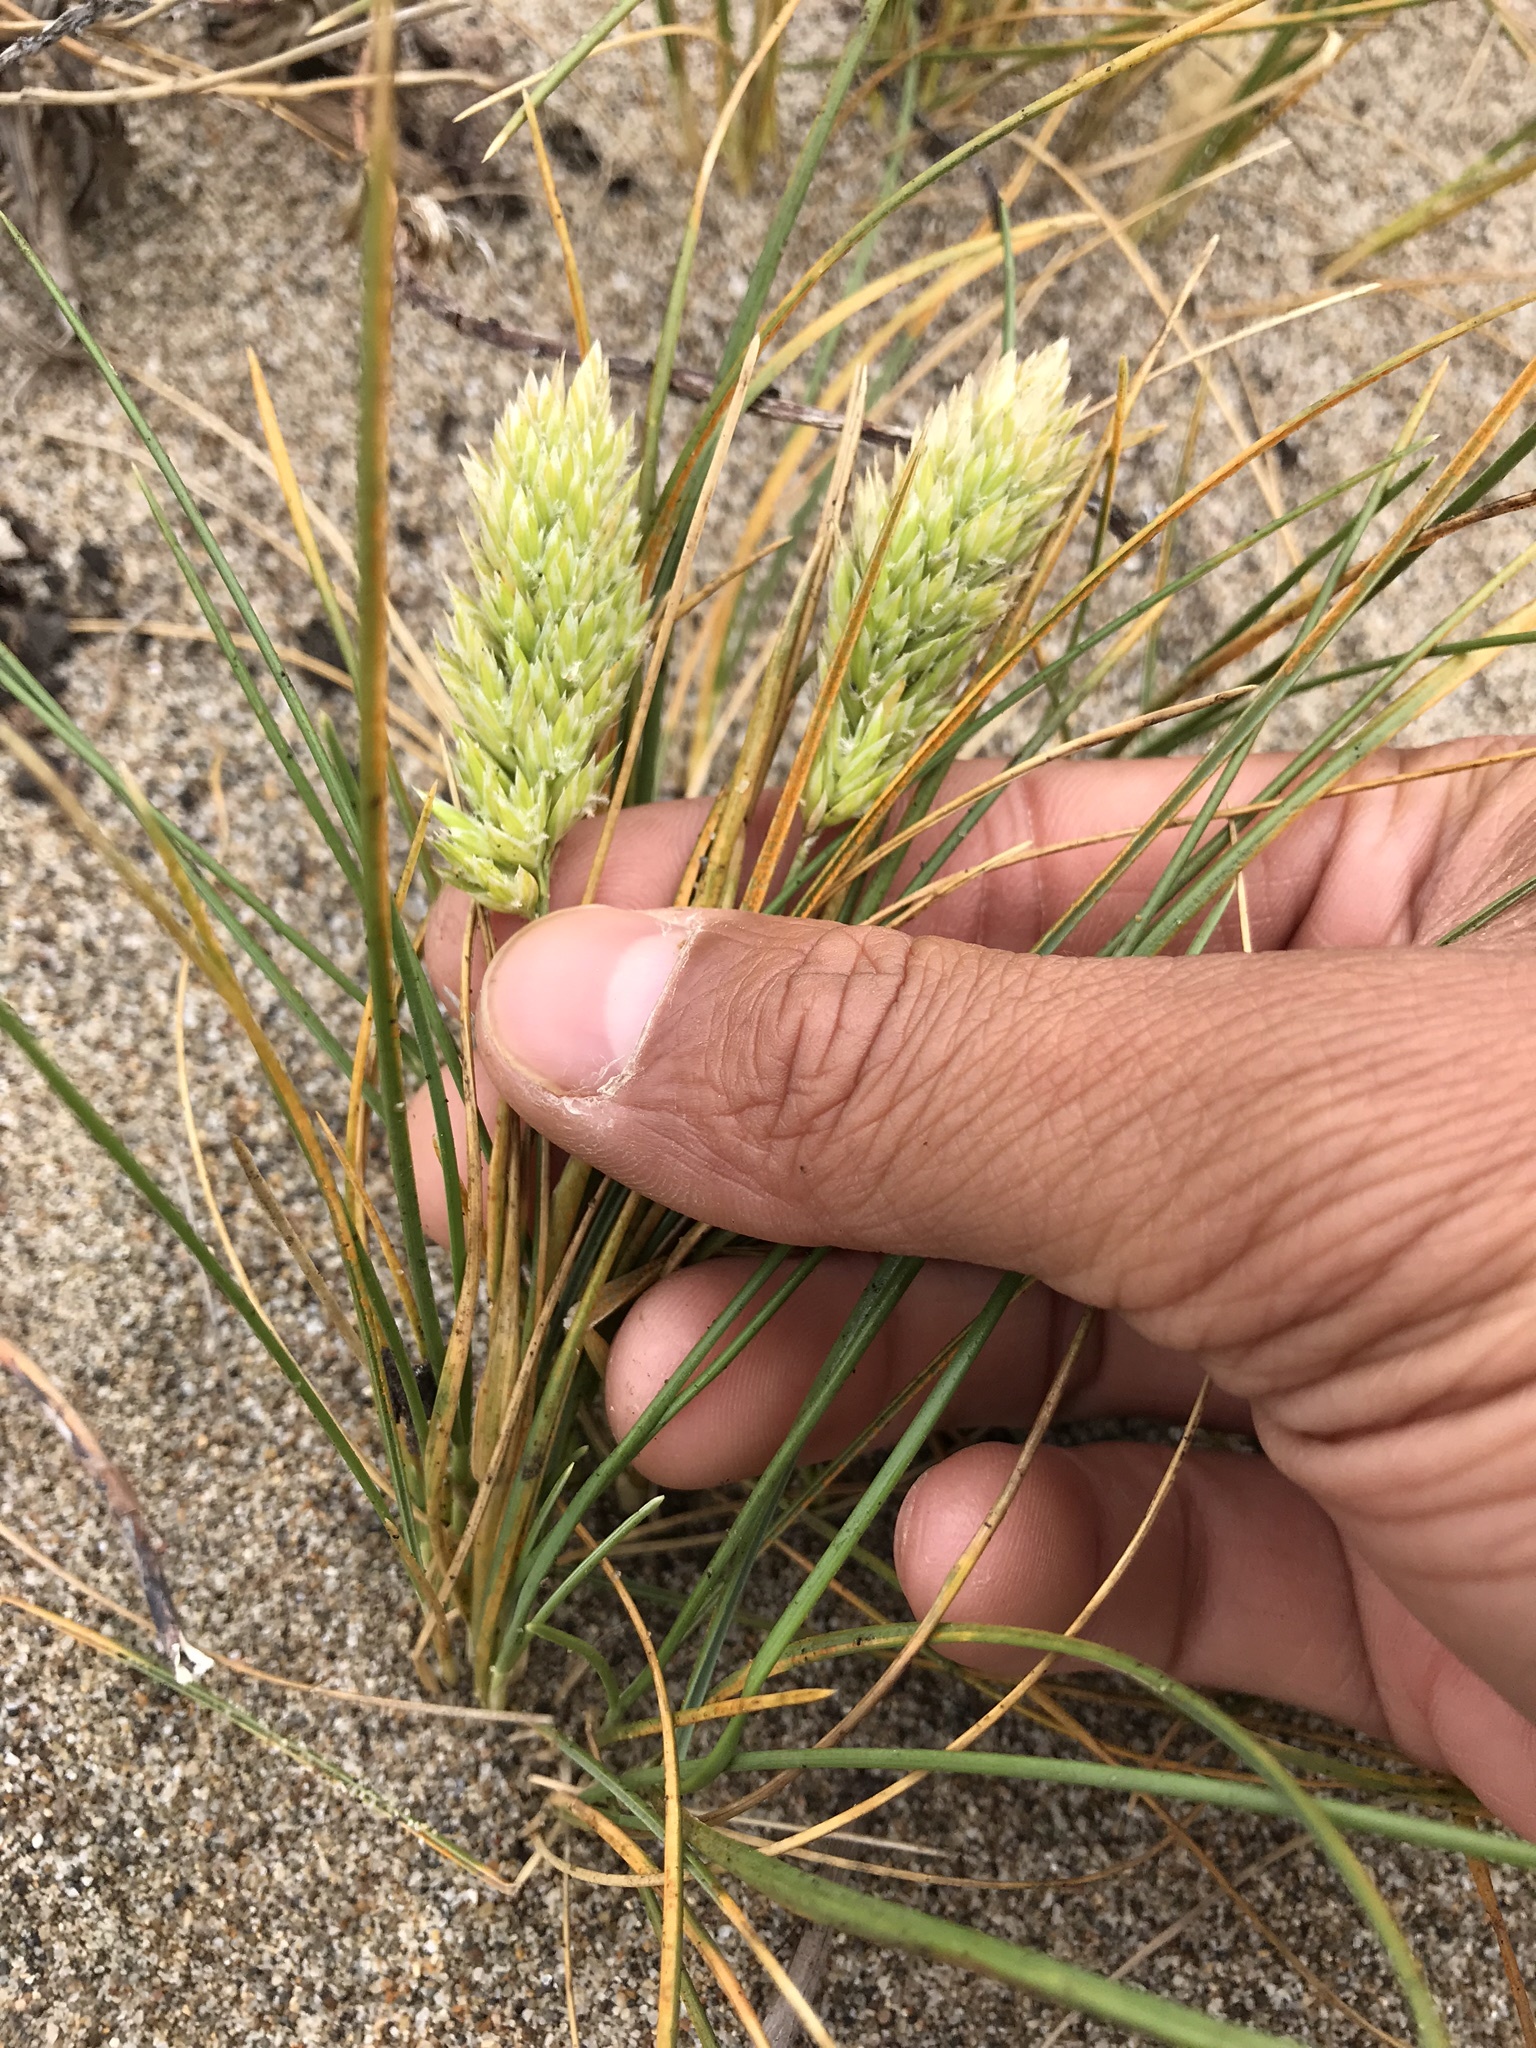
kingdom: Plantae
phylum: Tracheophyta
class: Liliopsida
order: Poales
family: Poaceae
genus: Poa
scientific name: Poa douglasii
